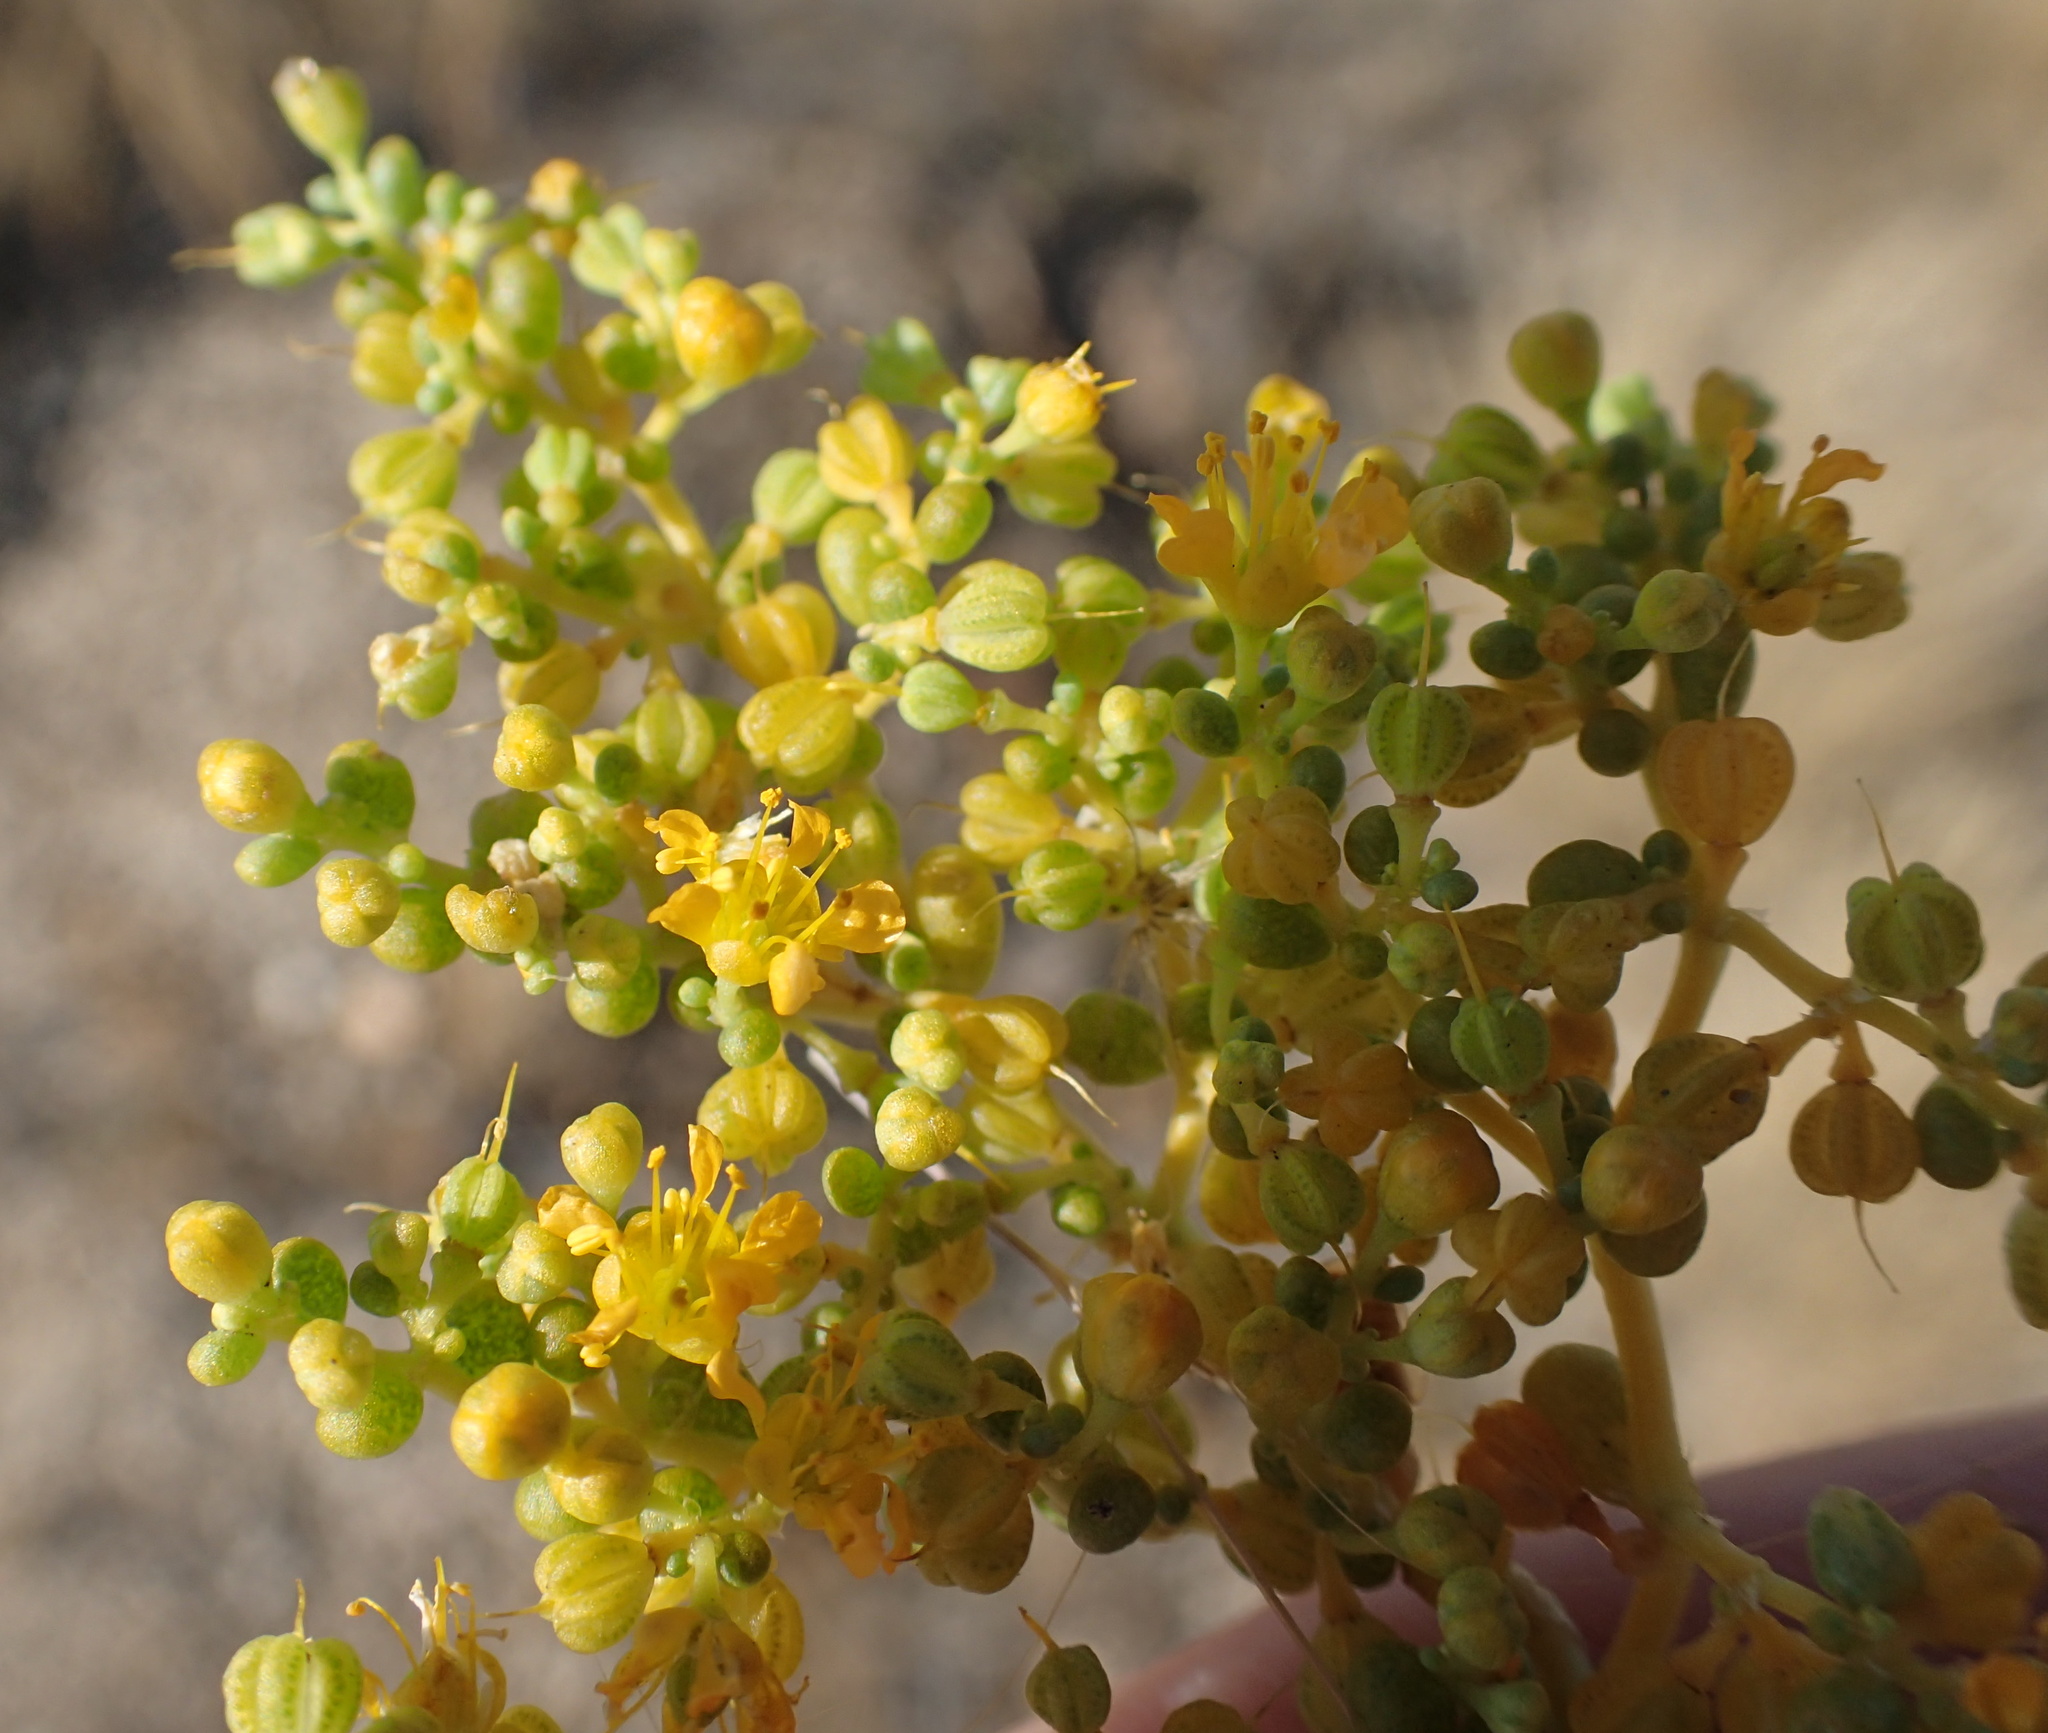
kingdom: Plantae
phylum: Tracheophyta
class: Magnoliopsida
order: Zygophyllales
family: Zygophyllaceae
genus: Tetraena
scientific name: Tetraena simplex
